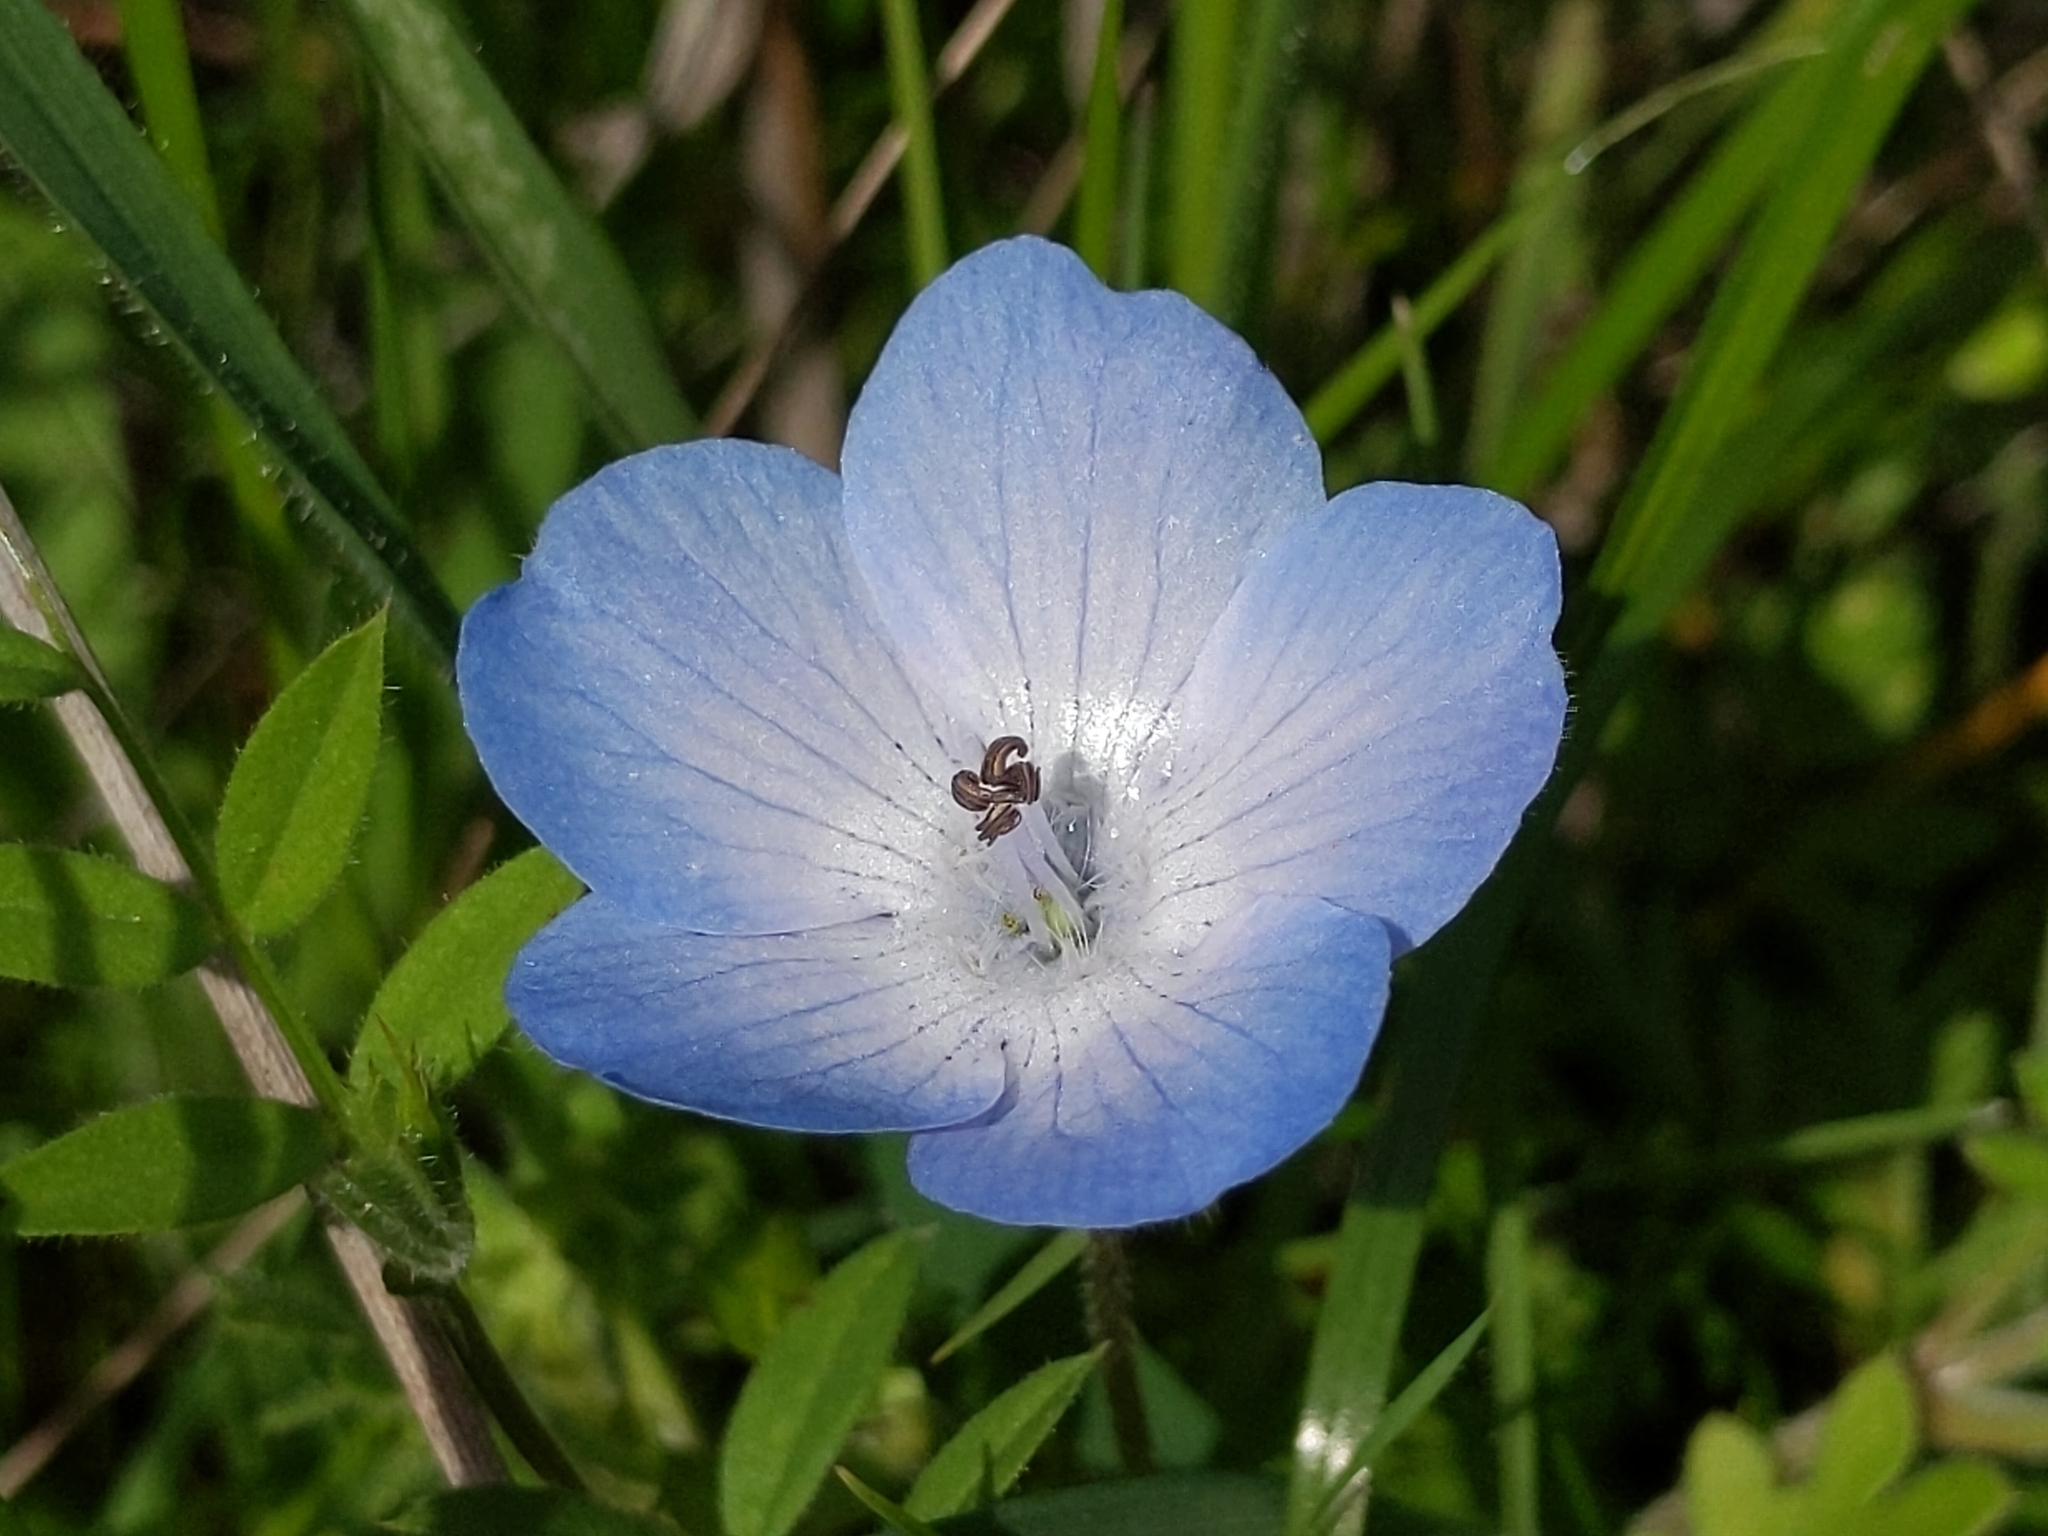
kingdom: Plantae
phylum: Tracheophyta
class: Magnoliopsida
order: Boraginales
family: Hydrophyllaceae
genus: Nemophila
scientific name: Nemophila menziesii
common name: Baby's-blue-eyes
